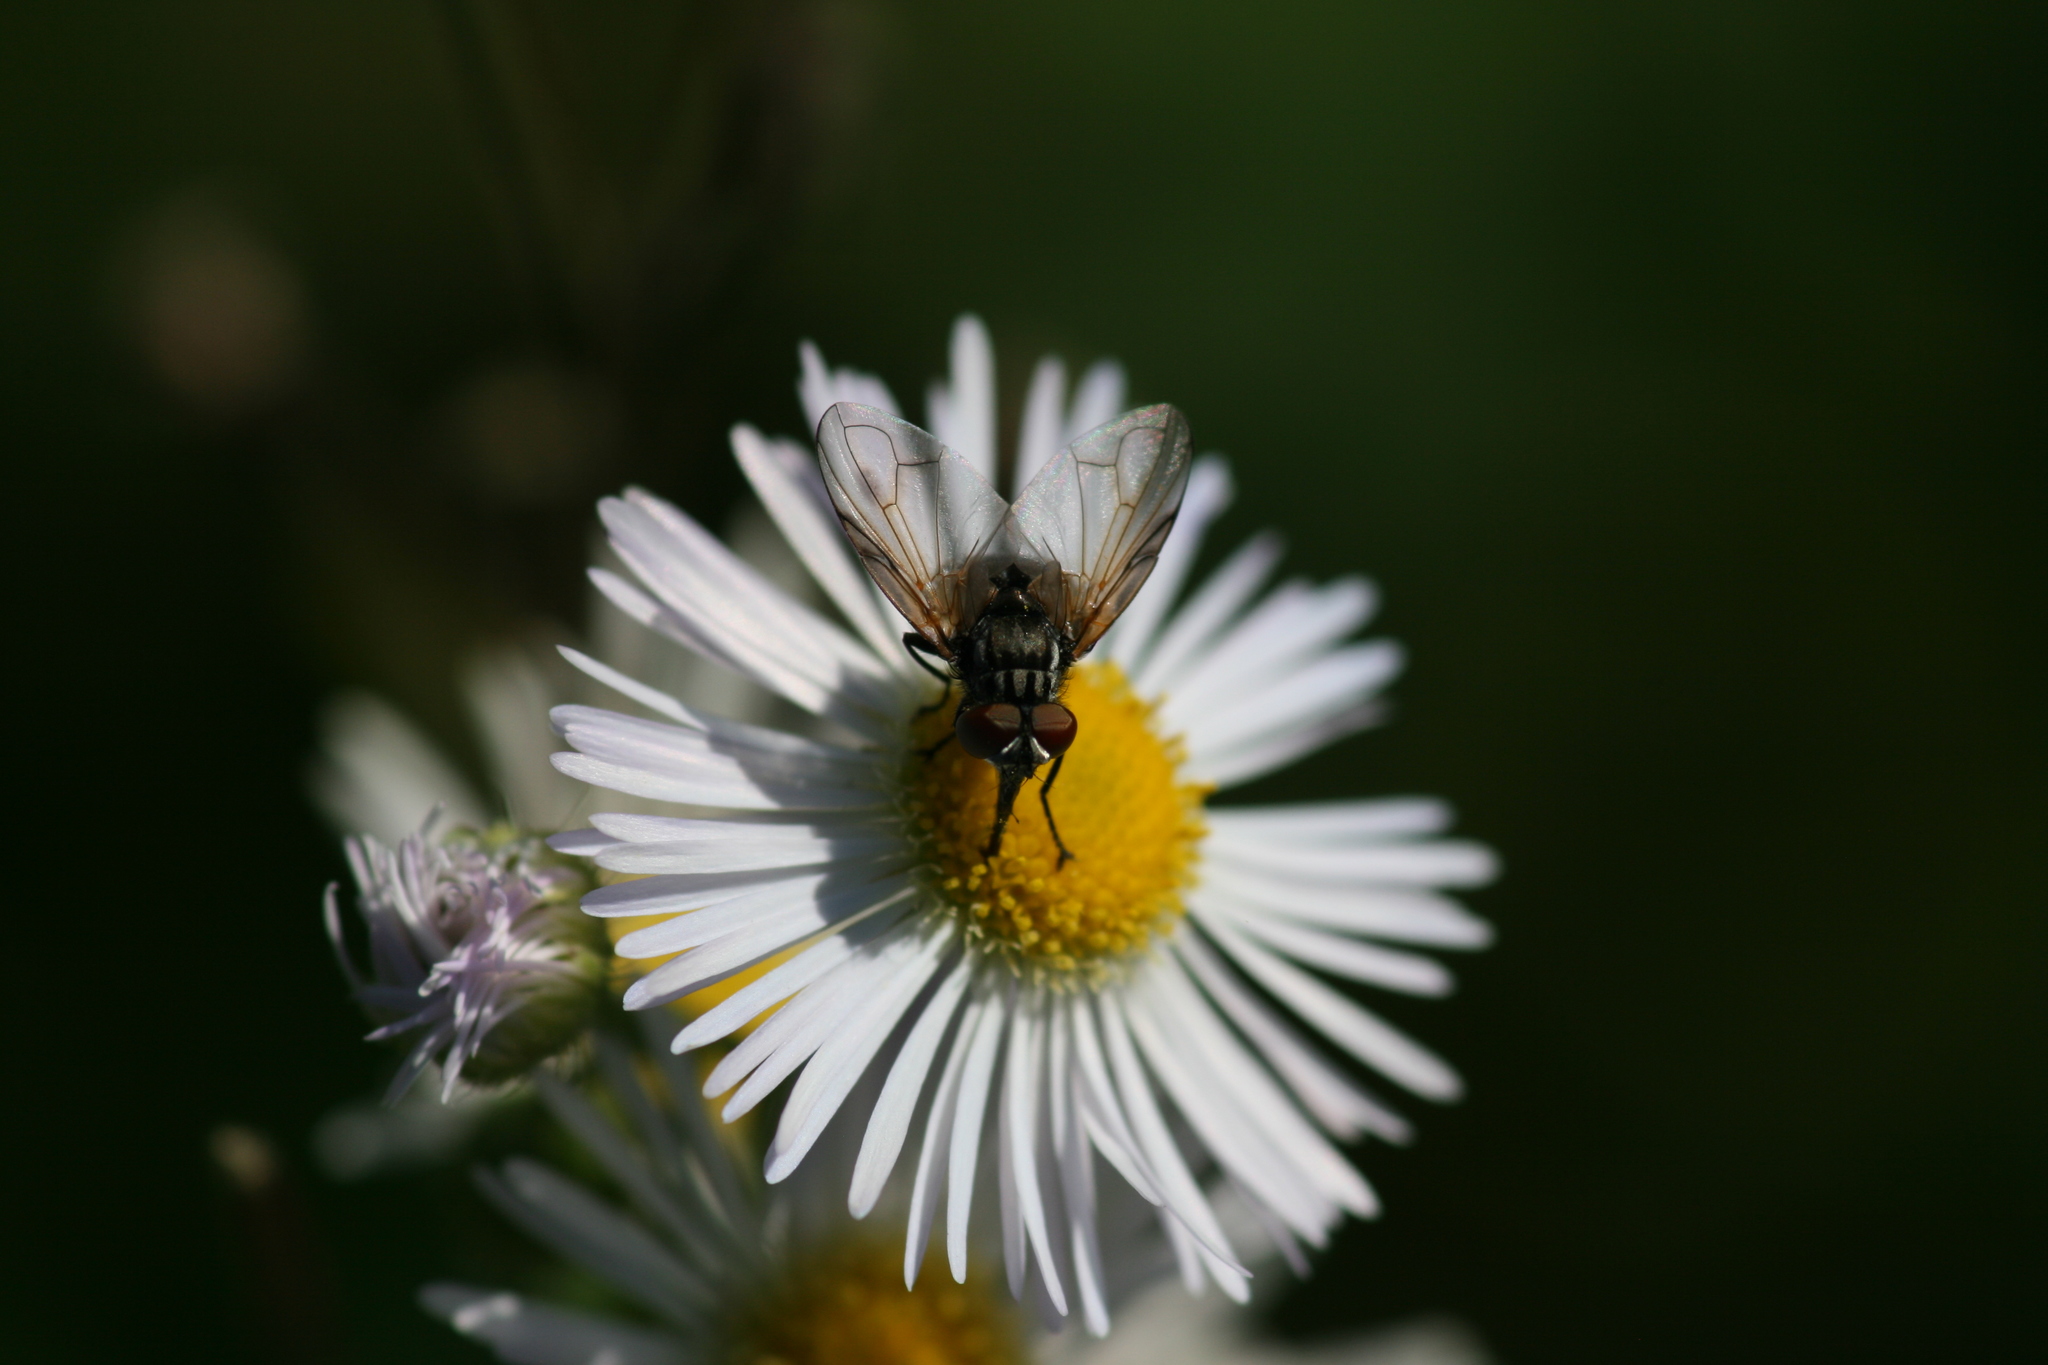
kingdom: Animalia
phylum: Arthropoda
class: Insecta
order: Diptera
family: Tachinidae
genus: Phasia
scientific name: Phasia obesa
